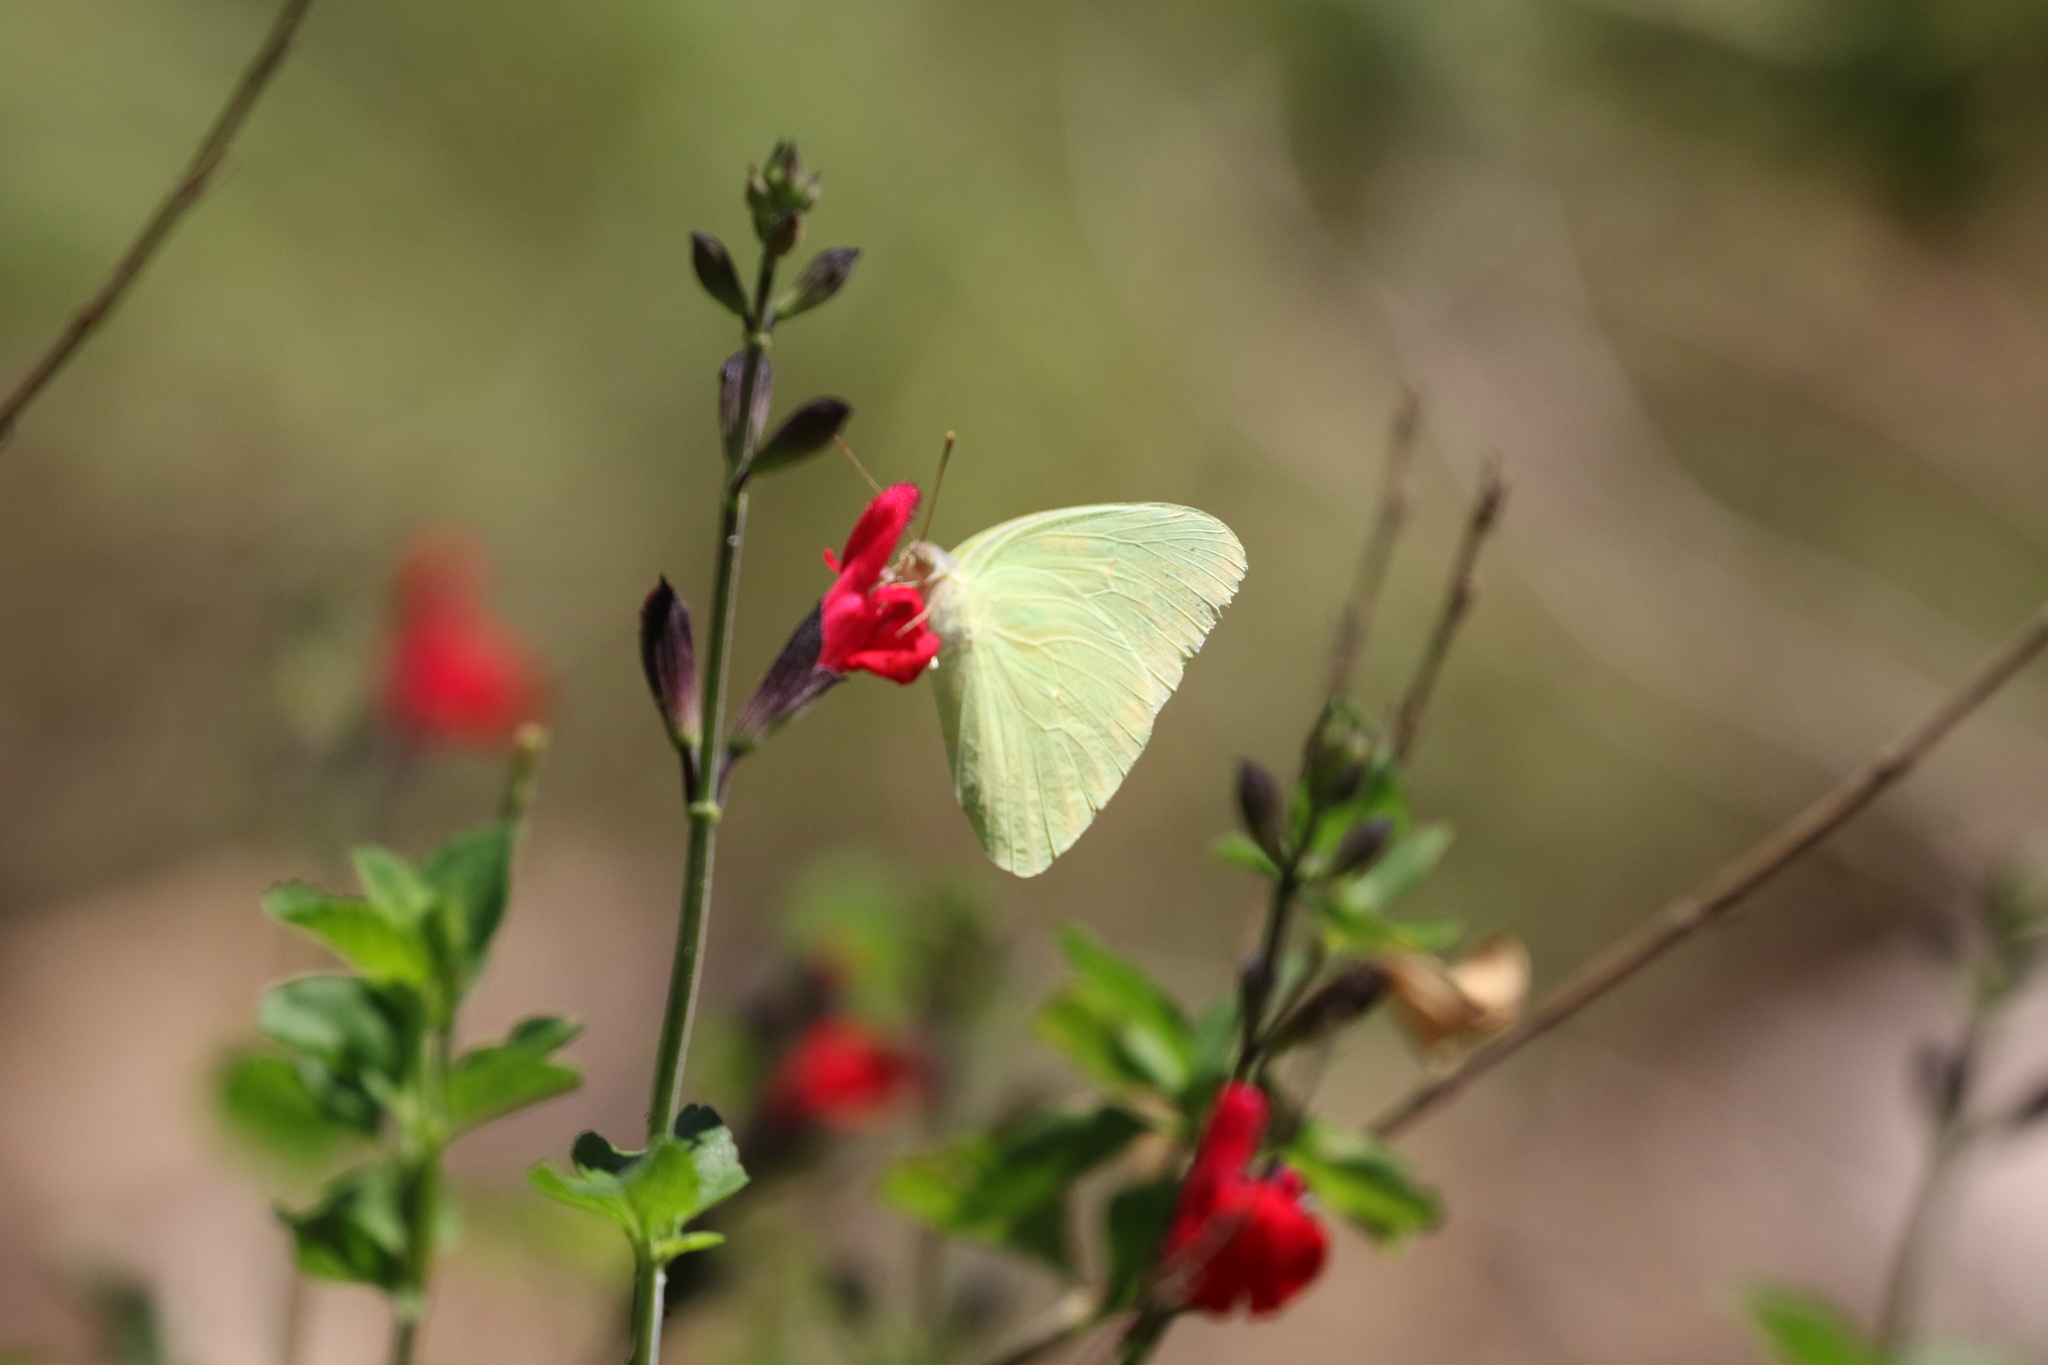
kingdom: Animalia
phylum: Arthropoda
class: Insecta
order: Lepidoptera
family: Pieridae
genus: Phoebis
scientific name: Phoebis sennae
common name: Cloudless sulphur
